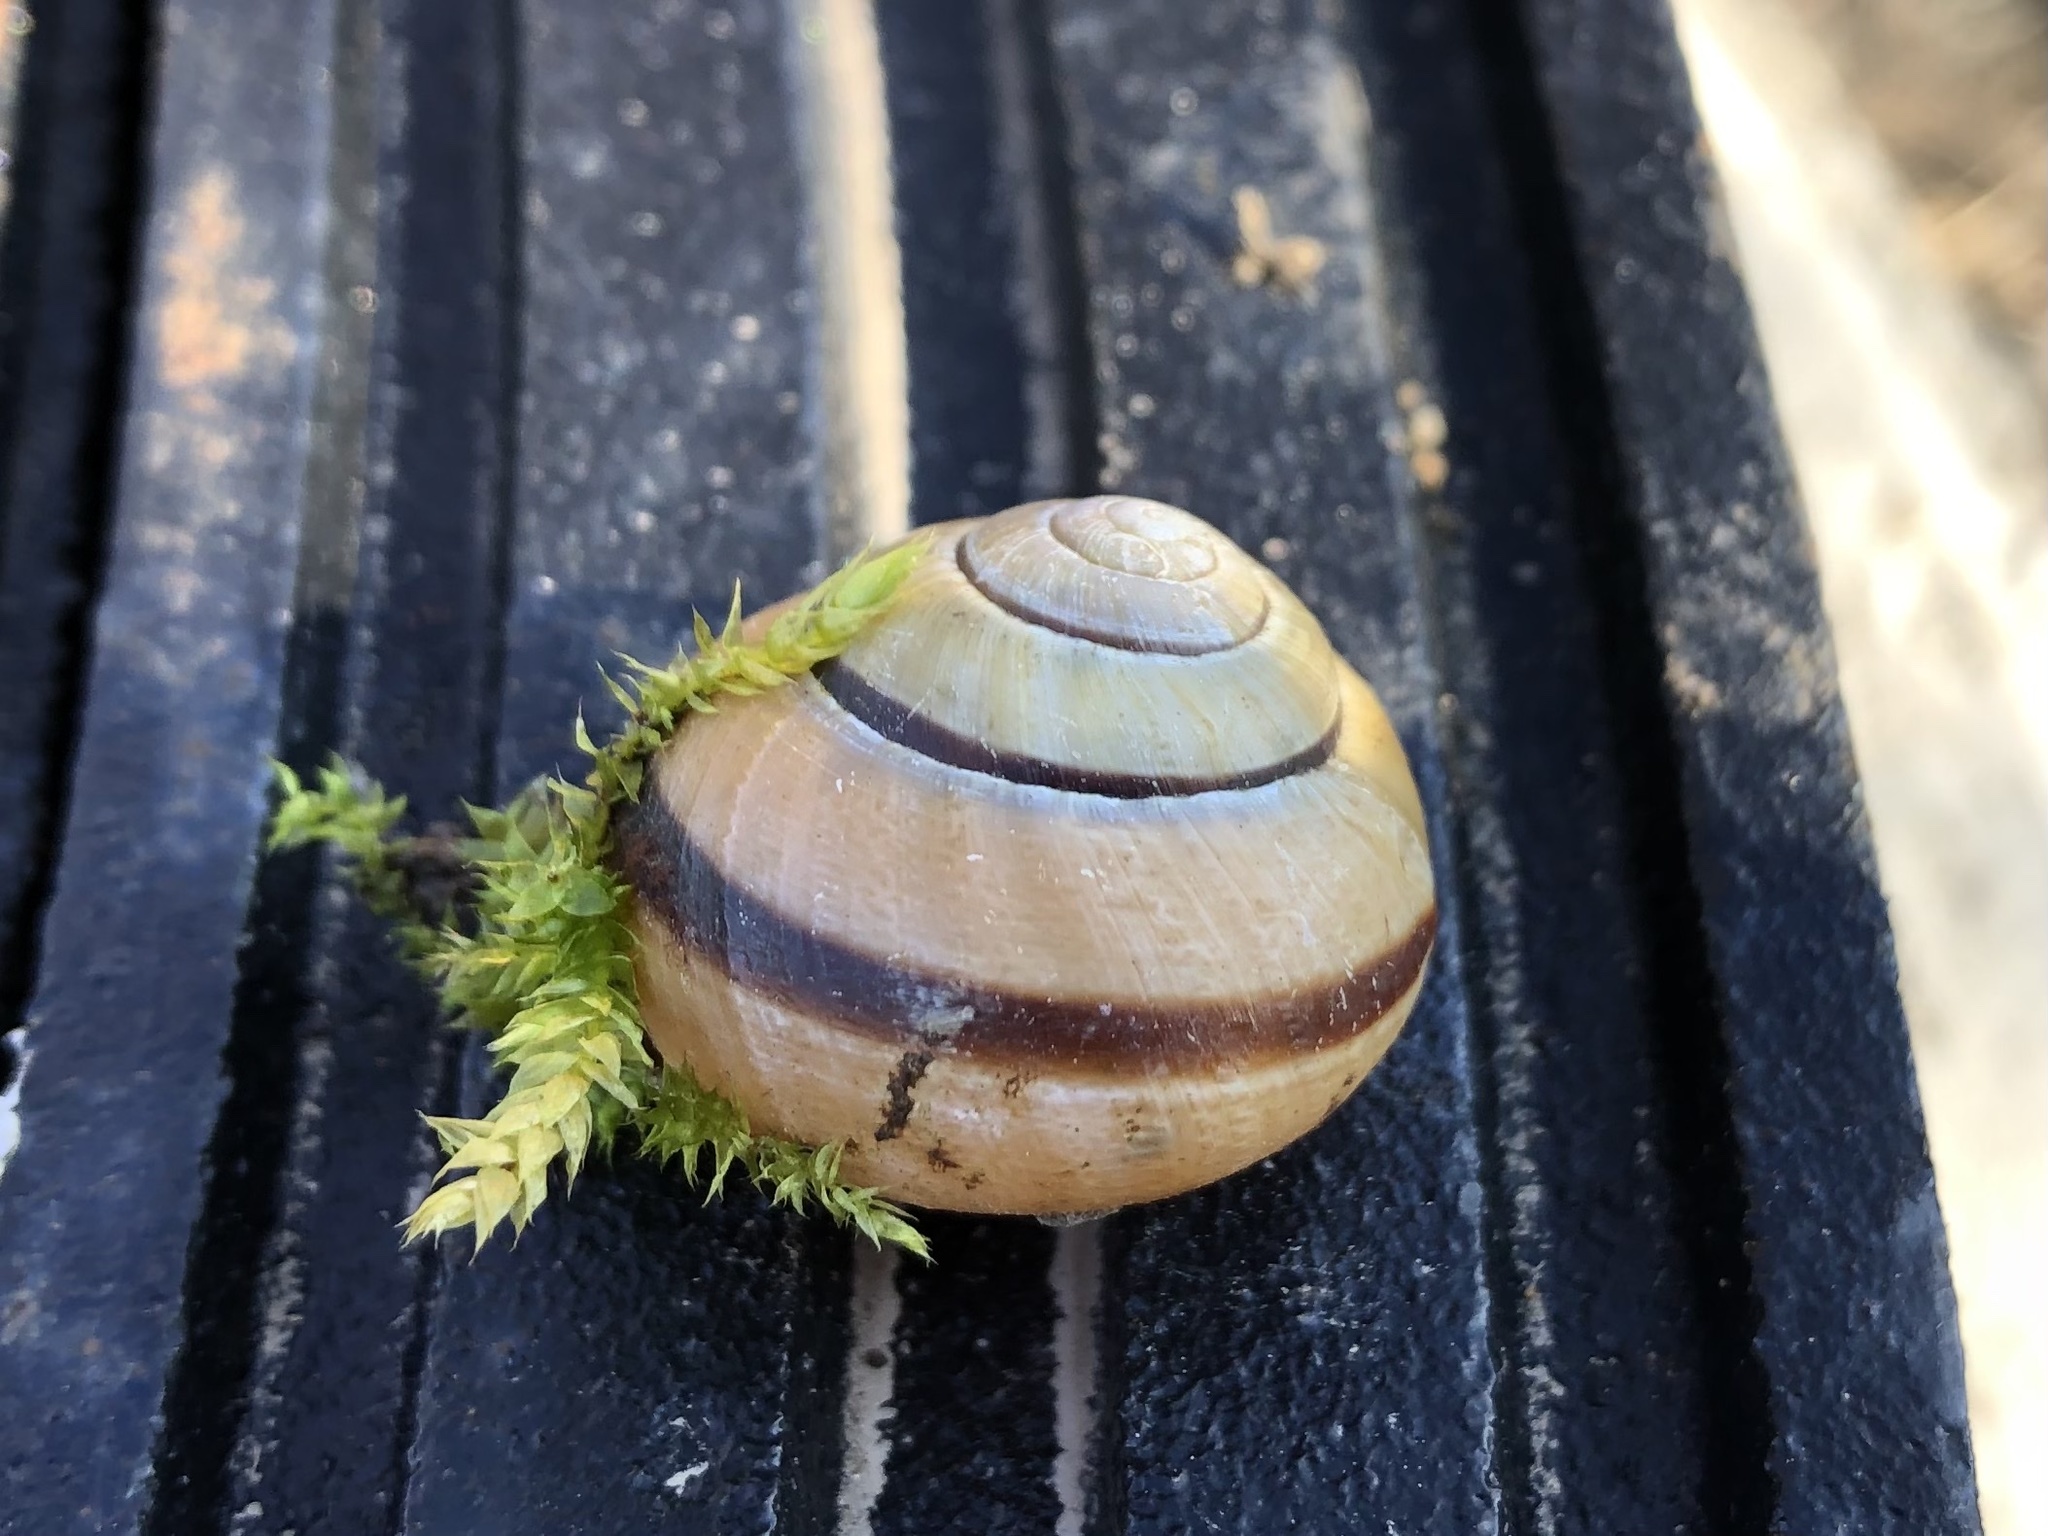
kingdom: Animalia
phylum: Mollusca
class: Gastropoda
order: Stylommatophora
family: Helicidae
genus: Cepaea
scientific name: Cepaea nemoralis
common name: Grovesnail
